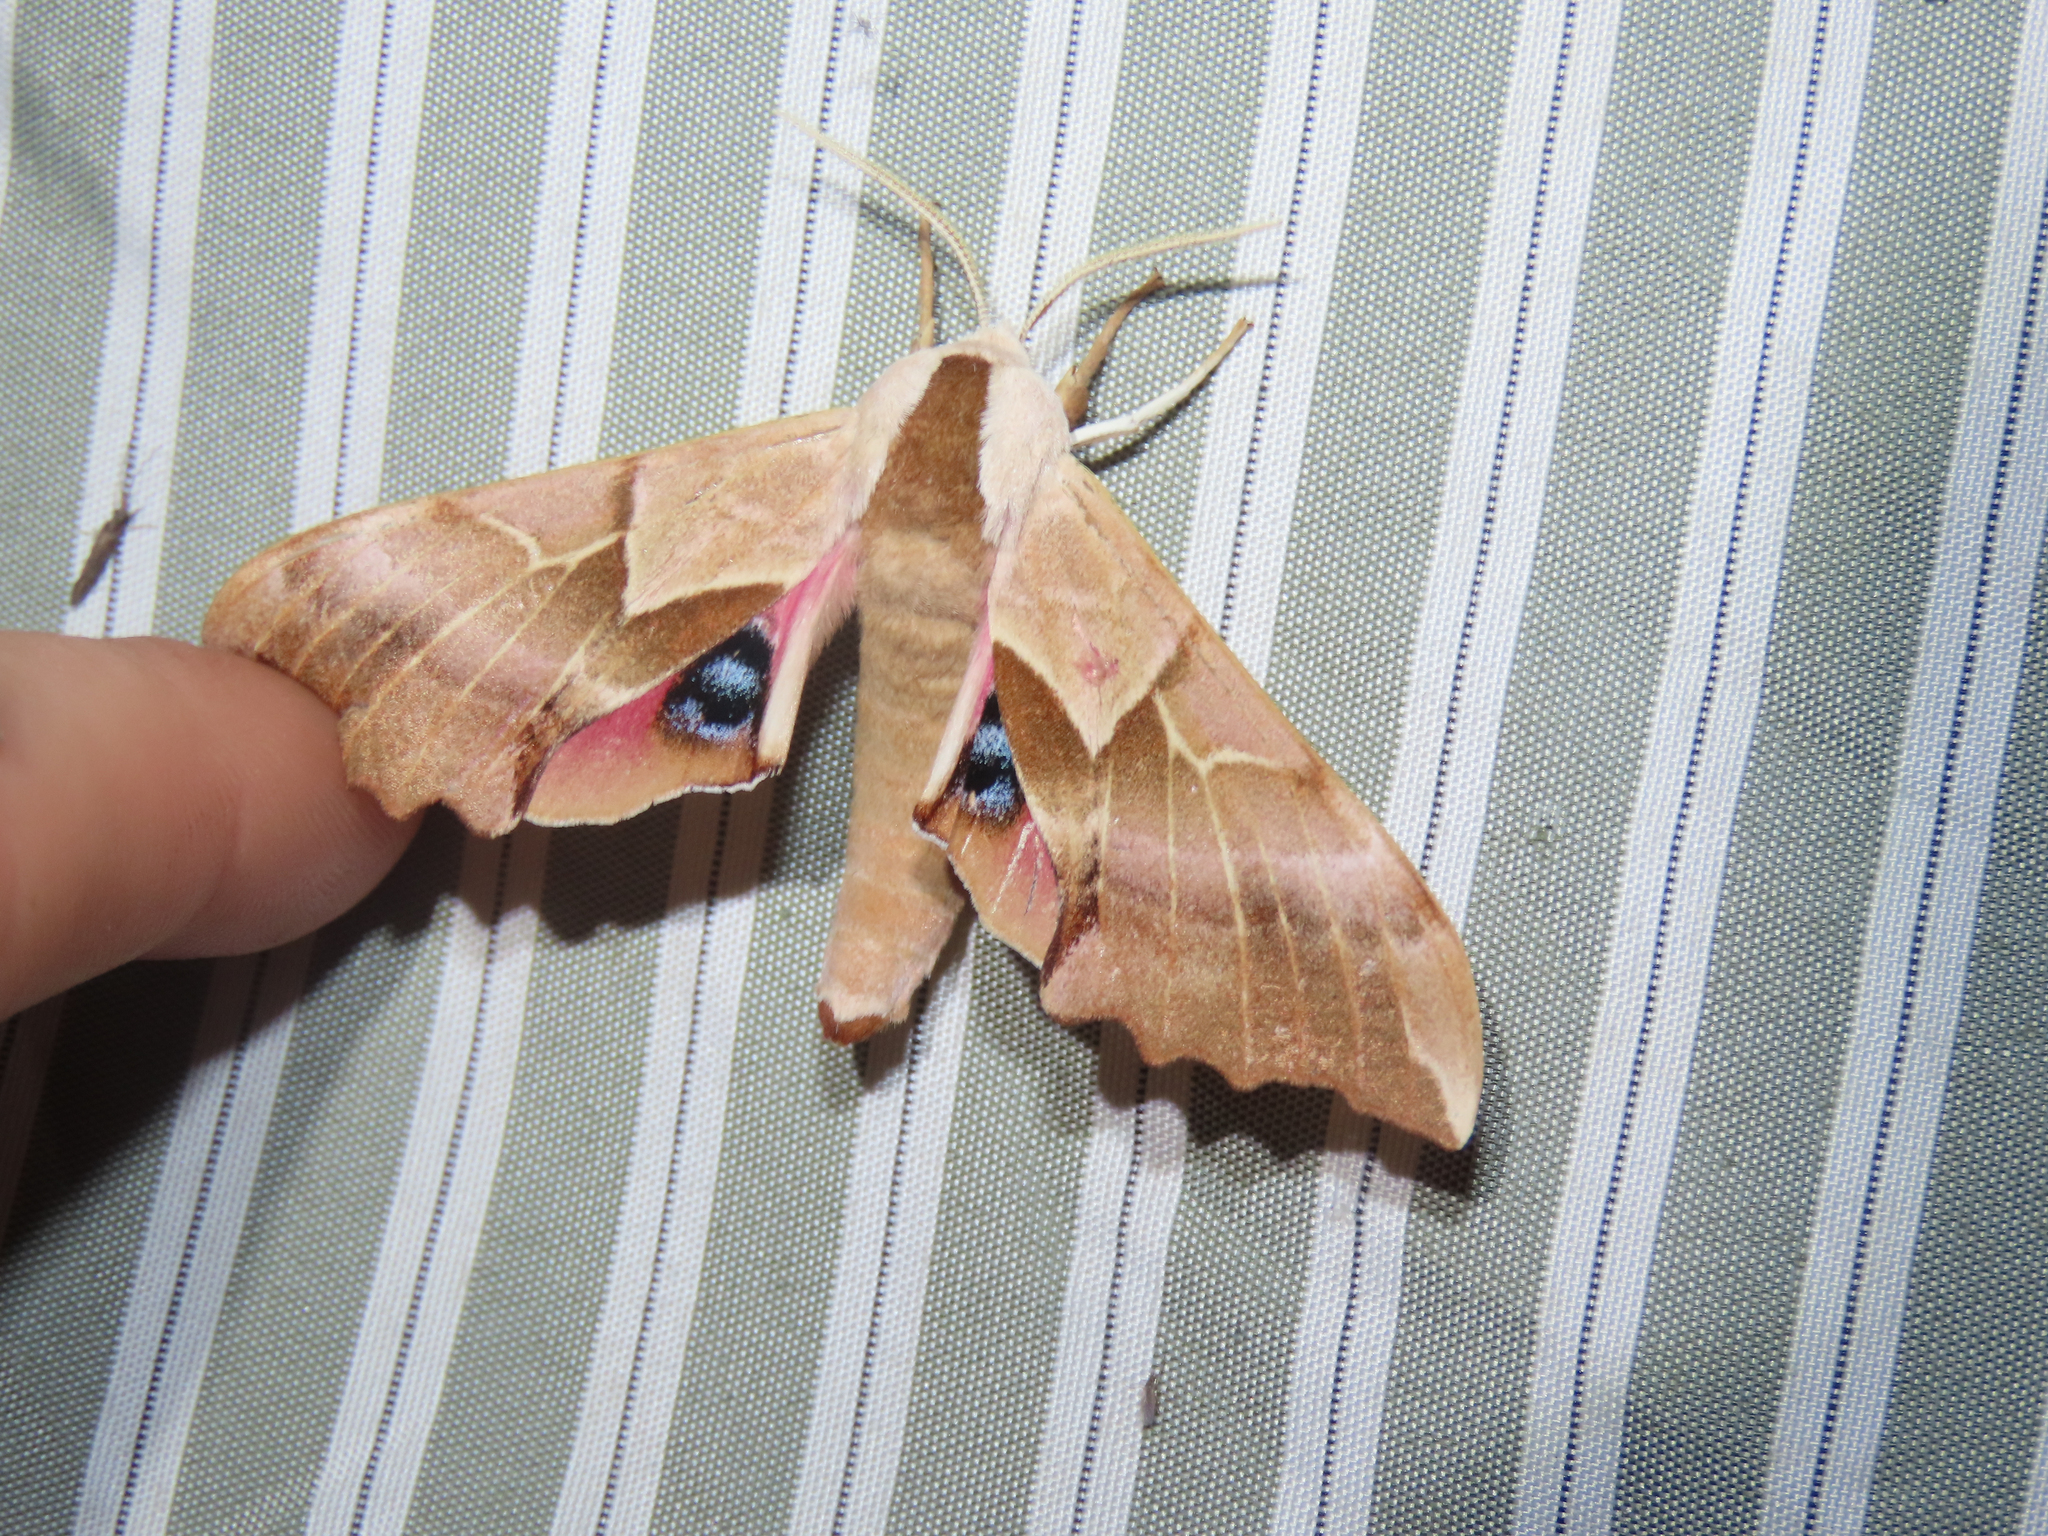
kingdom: Animalia
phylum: Arthropoda
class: Insecta
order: Lepidoptera
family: Sphingidae
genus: Smerinthus
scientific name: Smerinthus cerisyi
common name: Cerisy's sphinx moth
